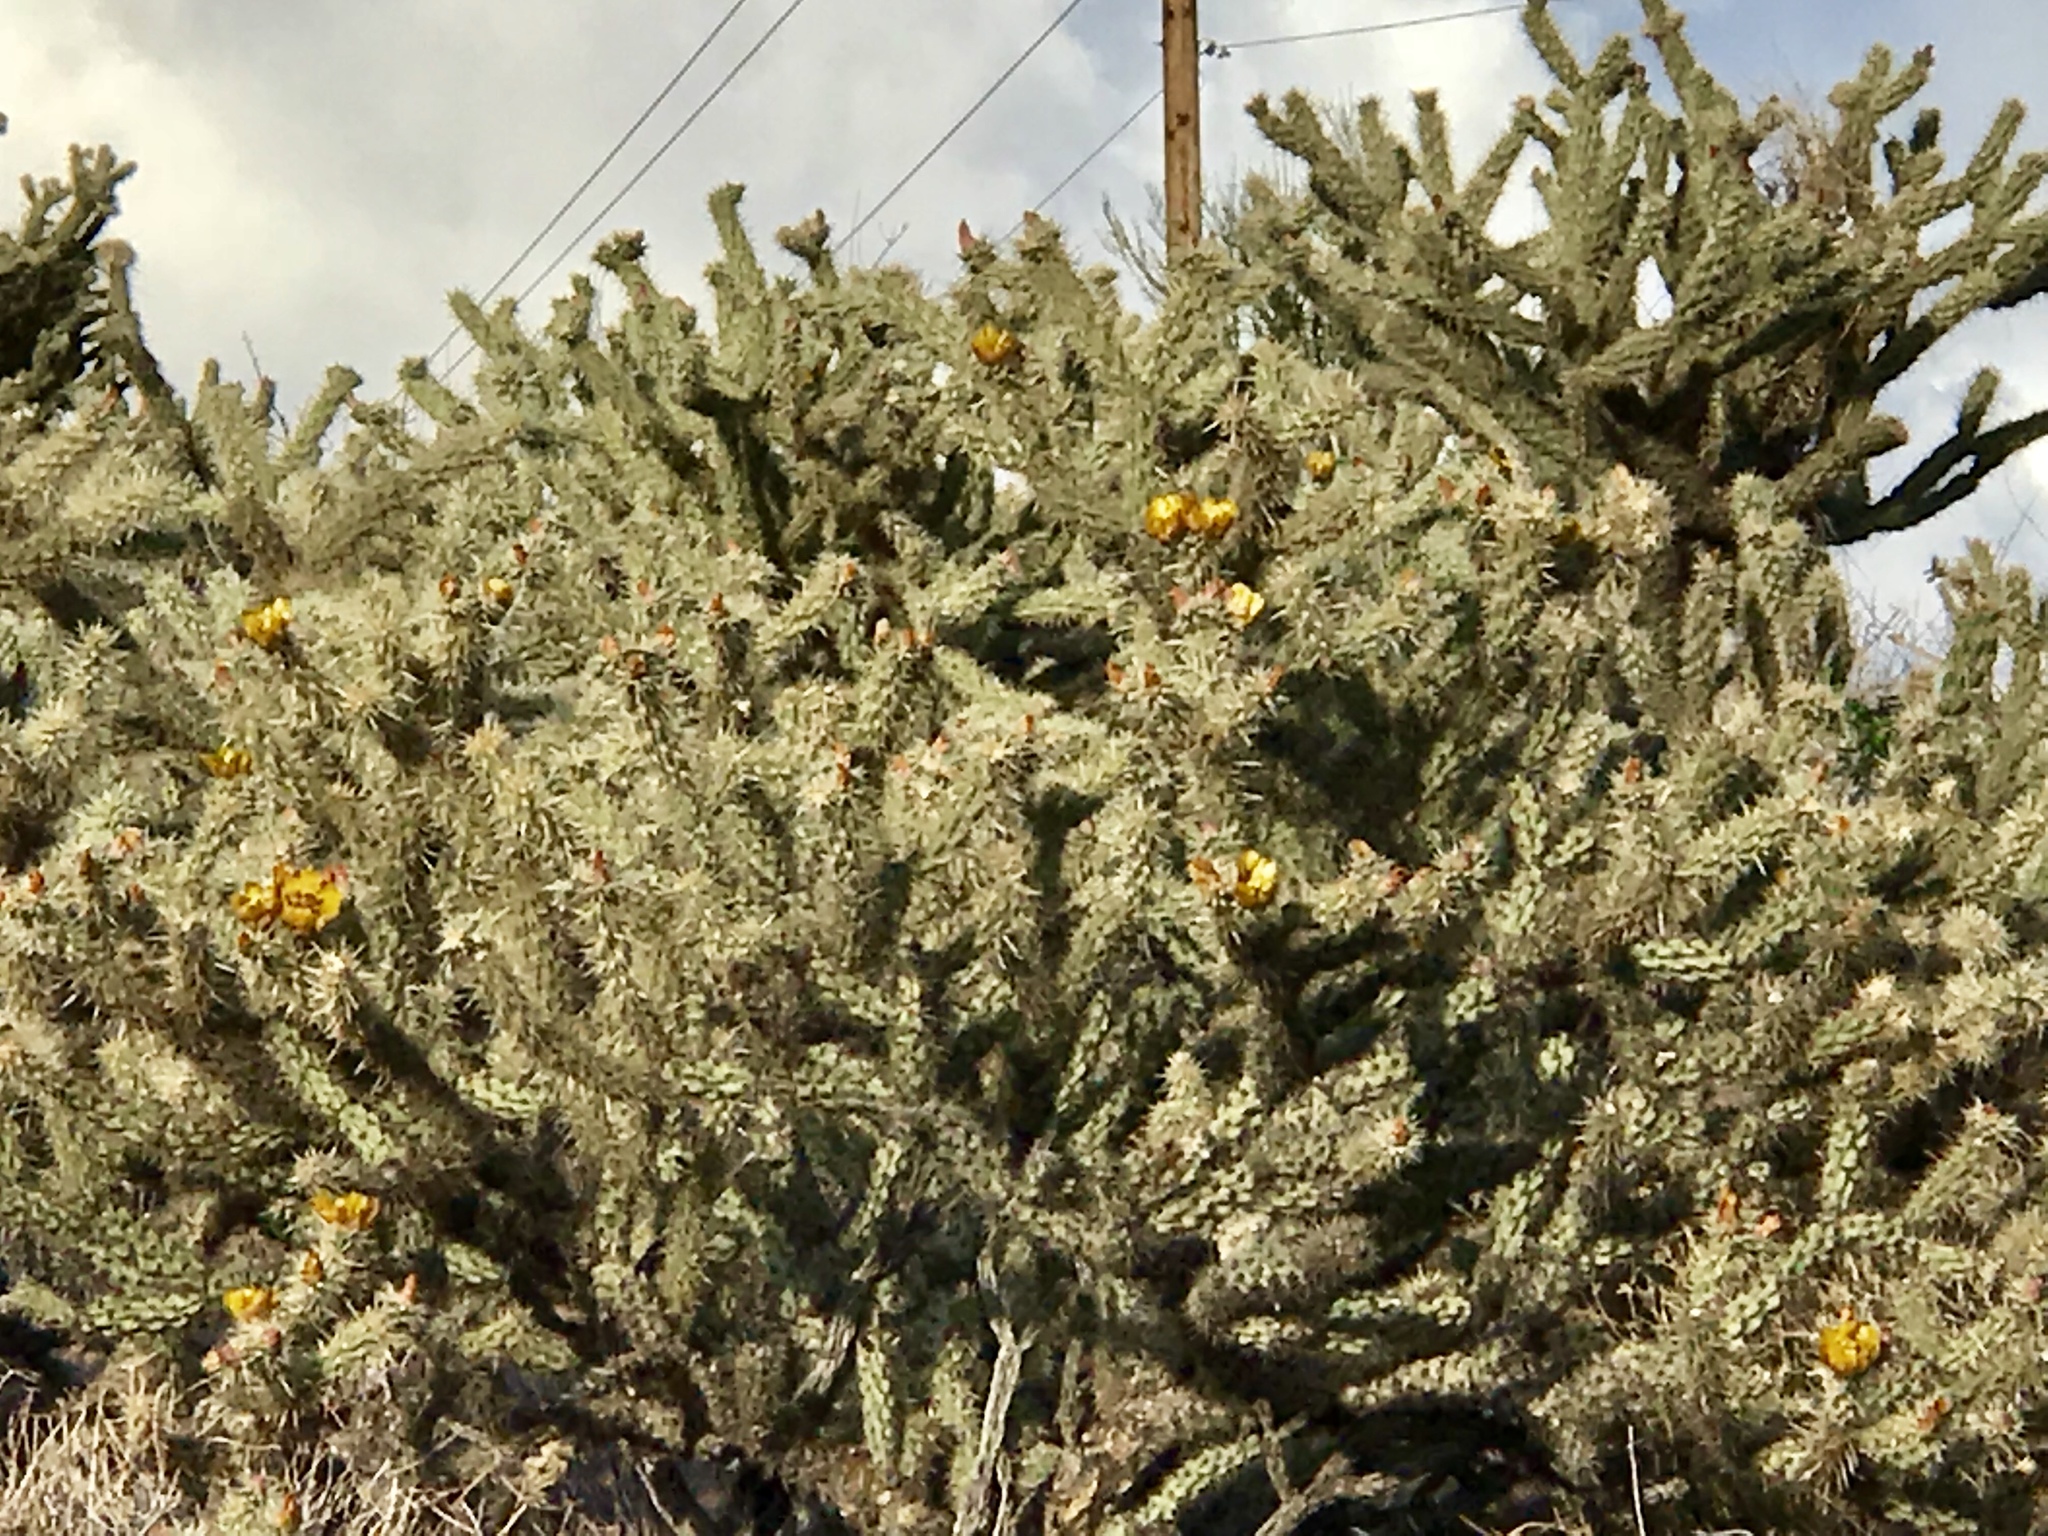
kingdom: Plantae
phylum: Tracheophyta
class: Magnoliopsida
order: Caryophyllales
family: Cactaceae
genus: Cylindropuntia
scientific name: Cylindropuntia acanthocarpa
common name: Buckhorn cholla
